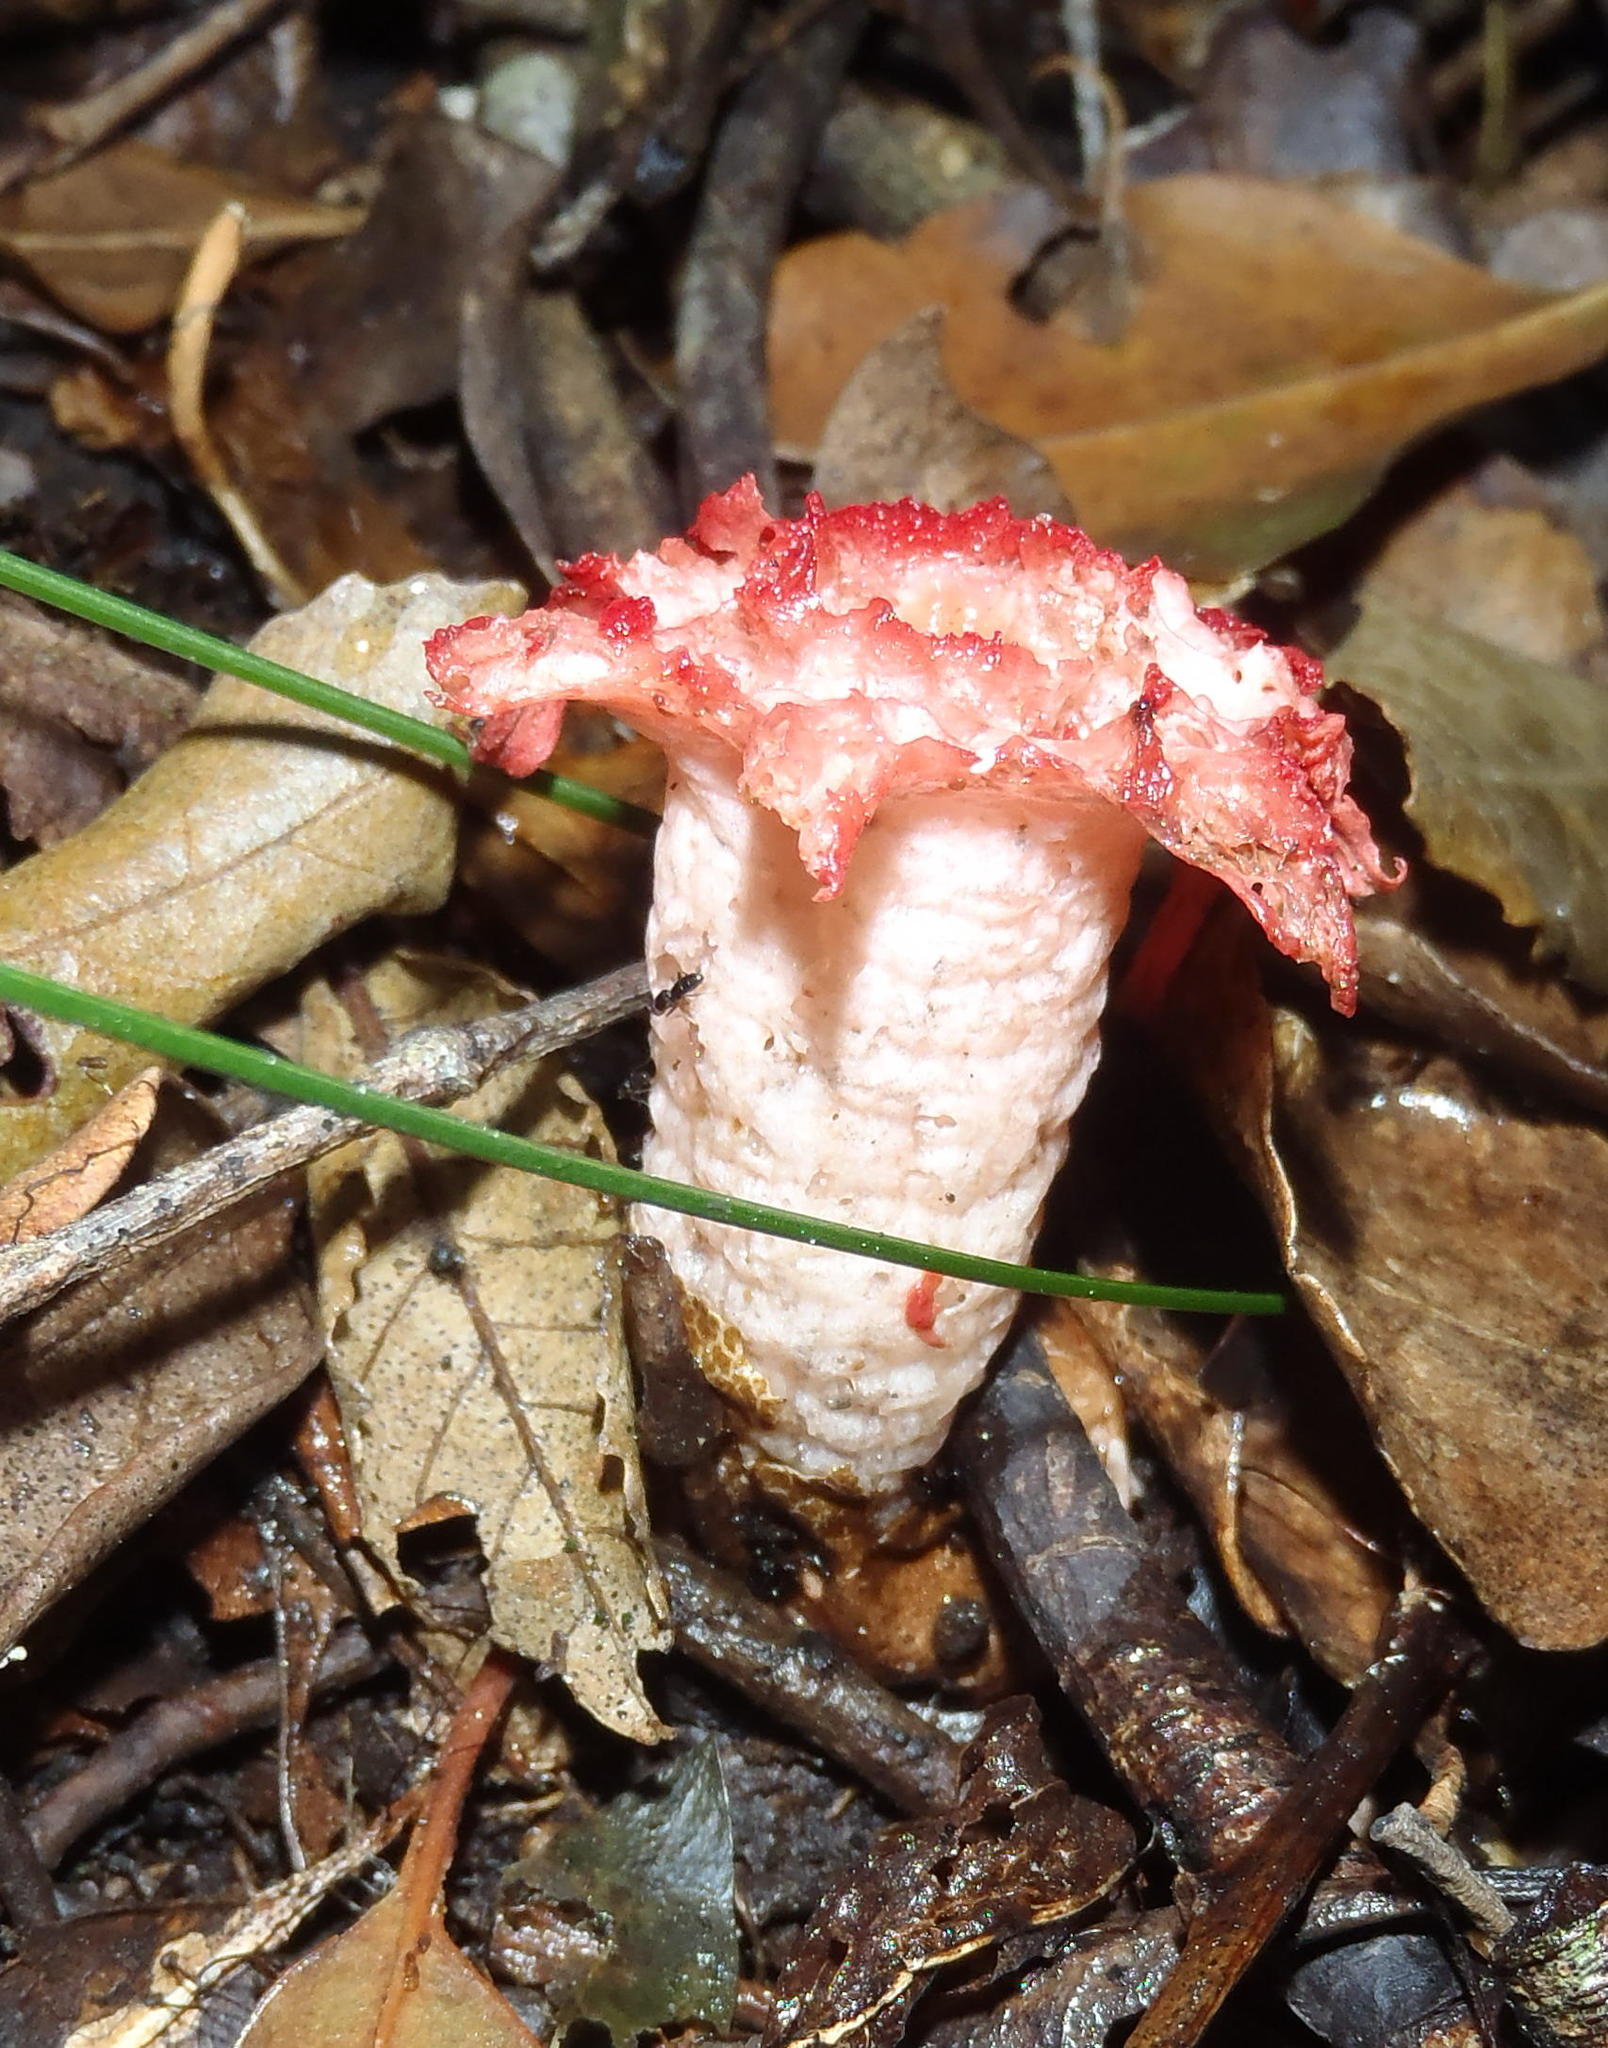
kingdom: Fungi
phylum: Basidiomycota
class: Agaricomycetes
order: Phallales
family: Phallaceae
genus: Aseroe
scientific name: Aseroe rubra
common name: Starfish fungus
